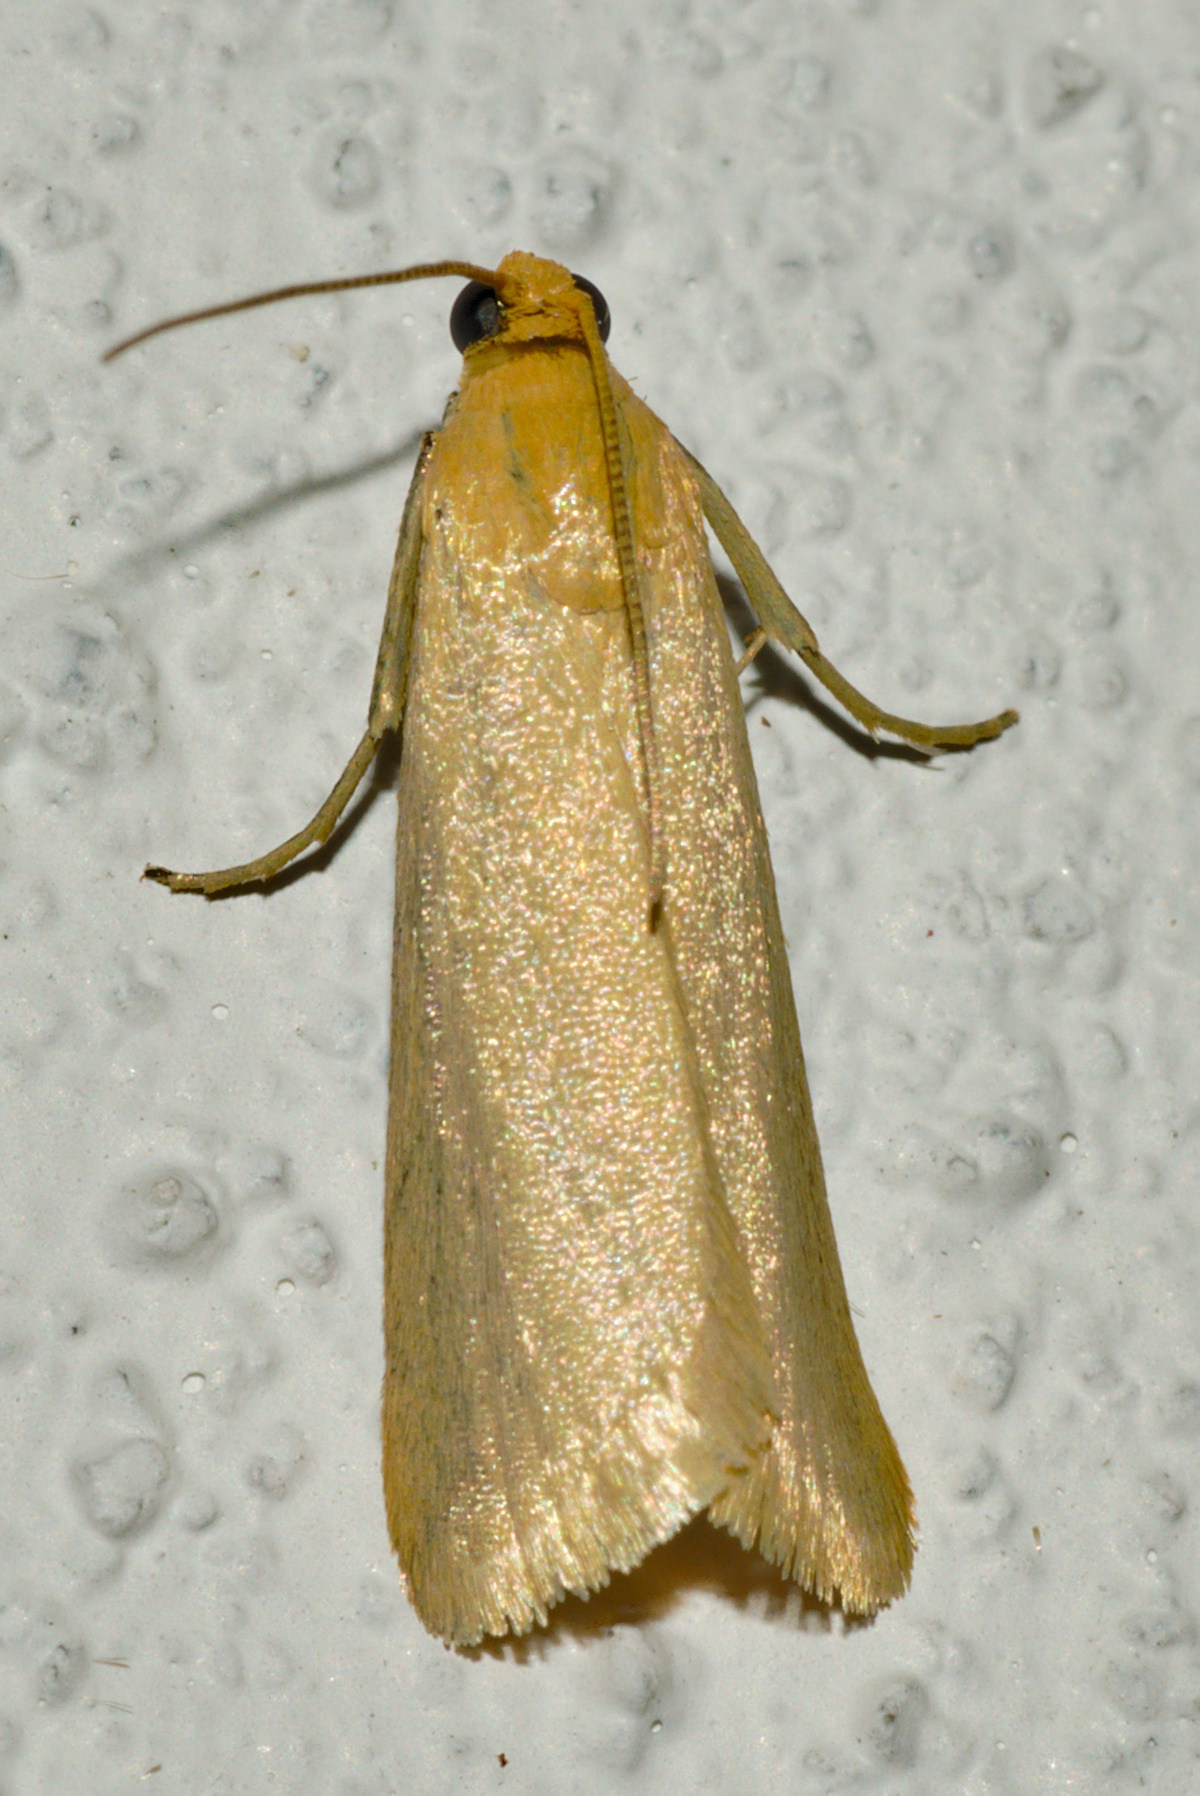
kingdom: Animalia
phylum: Arthropoda
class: Insecta
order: Lepidoptera
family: Pyralidae
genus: Eurhodope
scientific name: Eurhodope cirrigerella
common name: Hairy knot-horn
